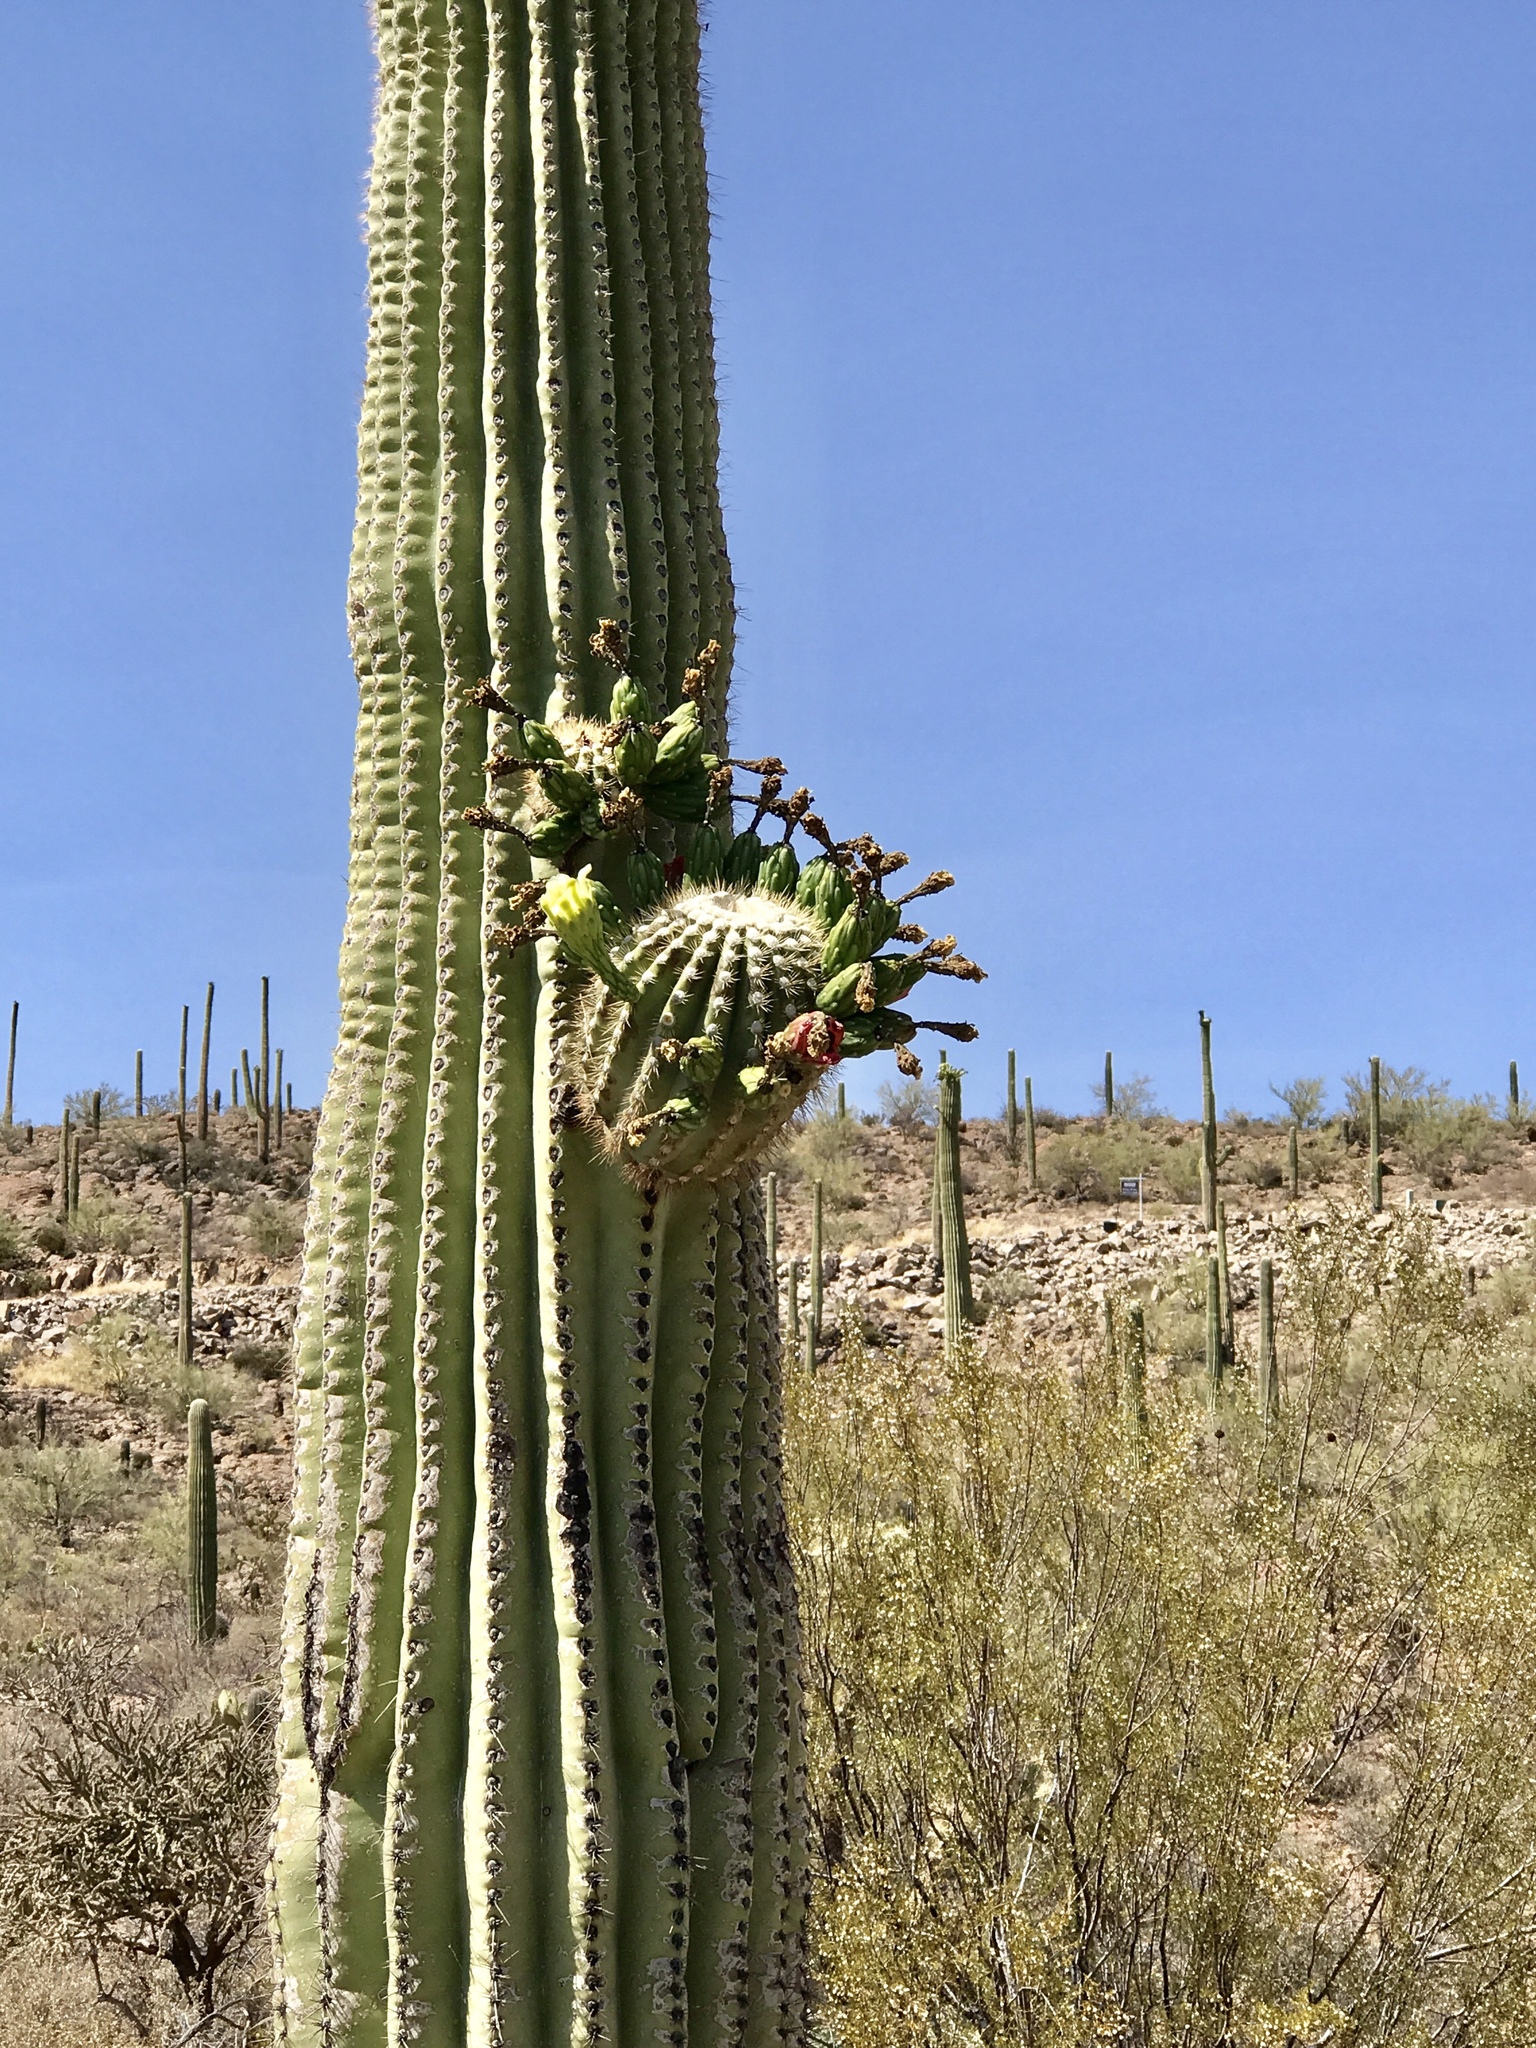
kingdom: Plantae
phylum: Tracheophyta
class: Magnoliopsida
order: Caryophyllales
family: Cactaceae
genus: Carnegiea
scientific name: Carnegiea gigantea
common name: Saguaro
